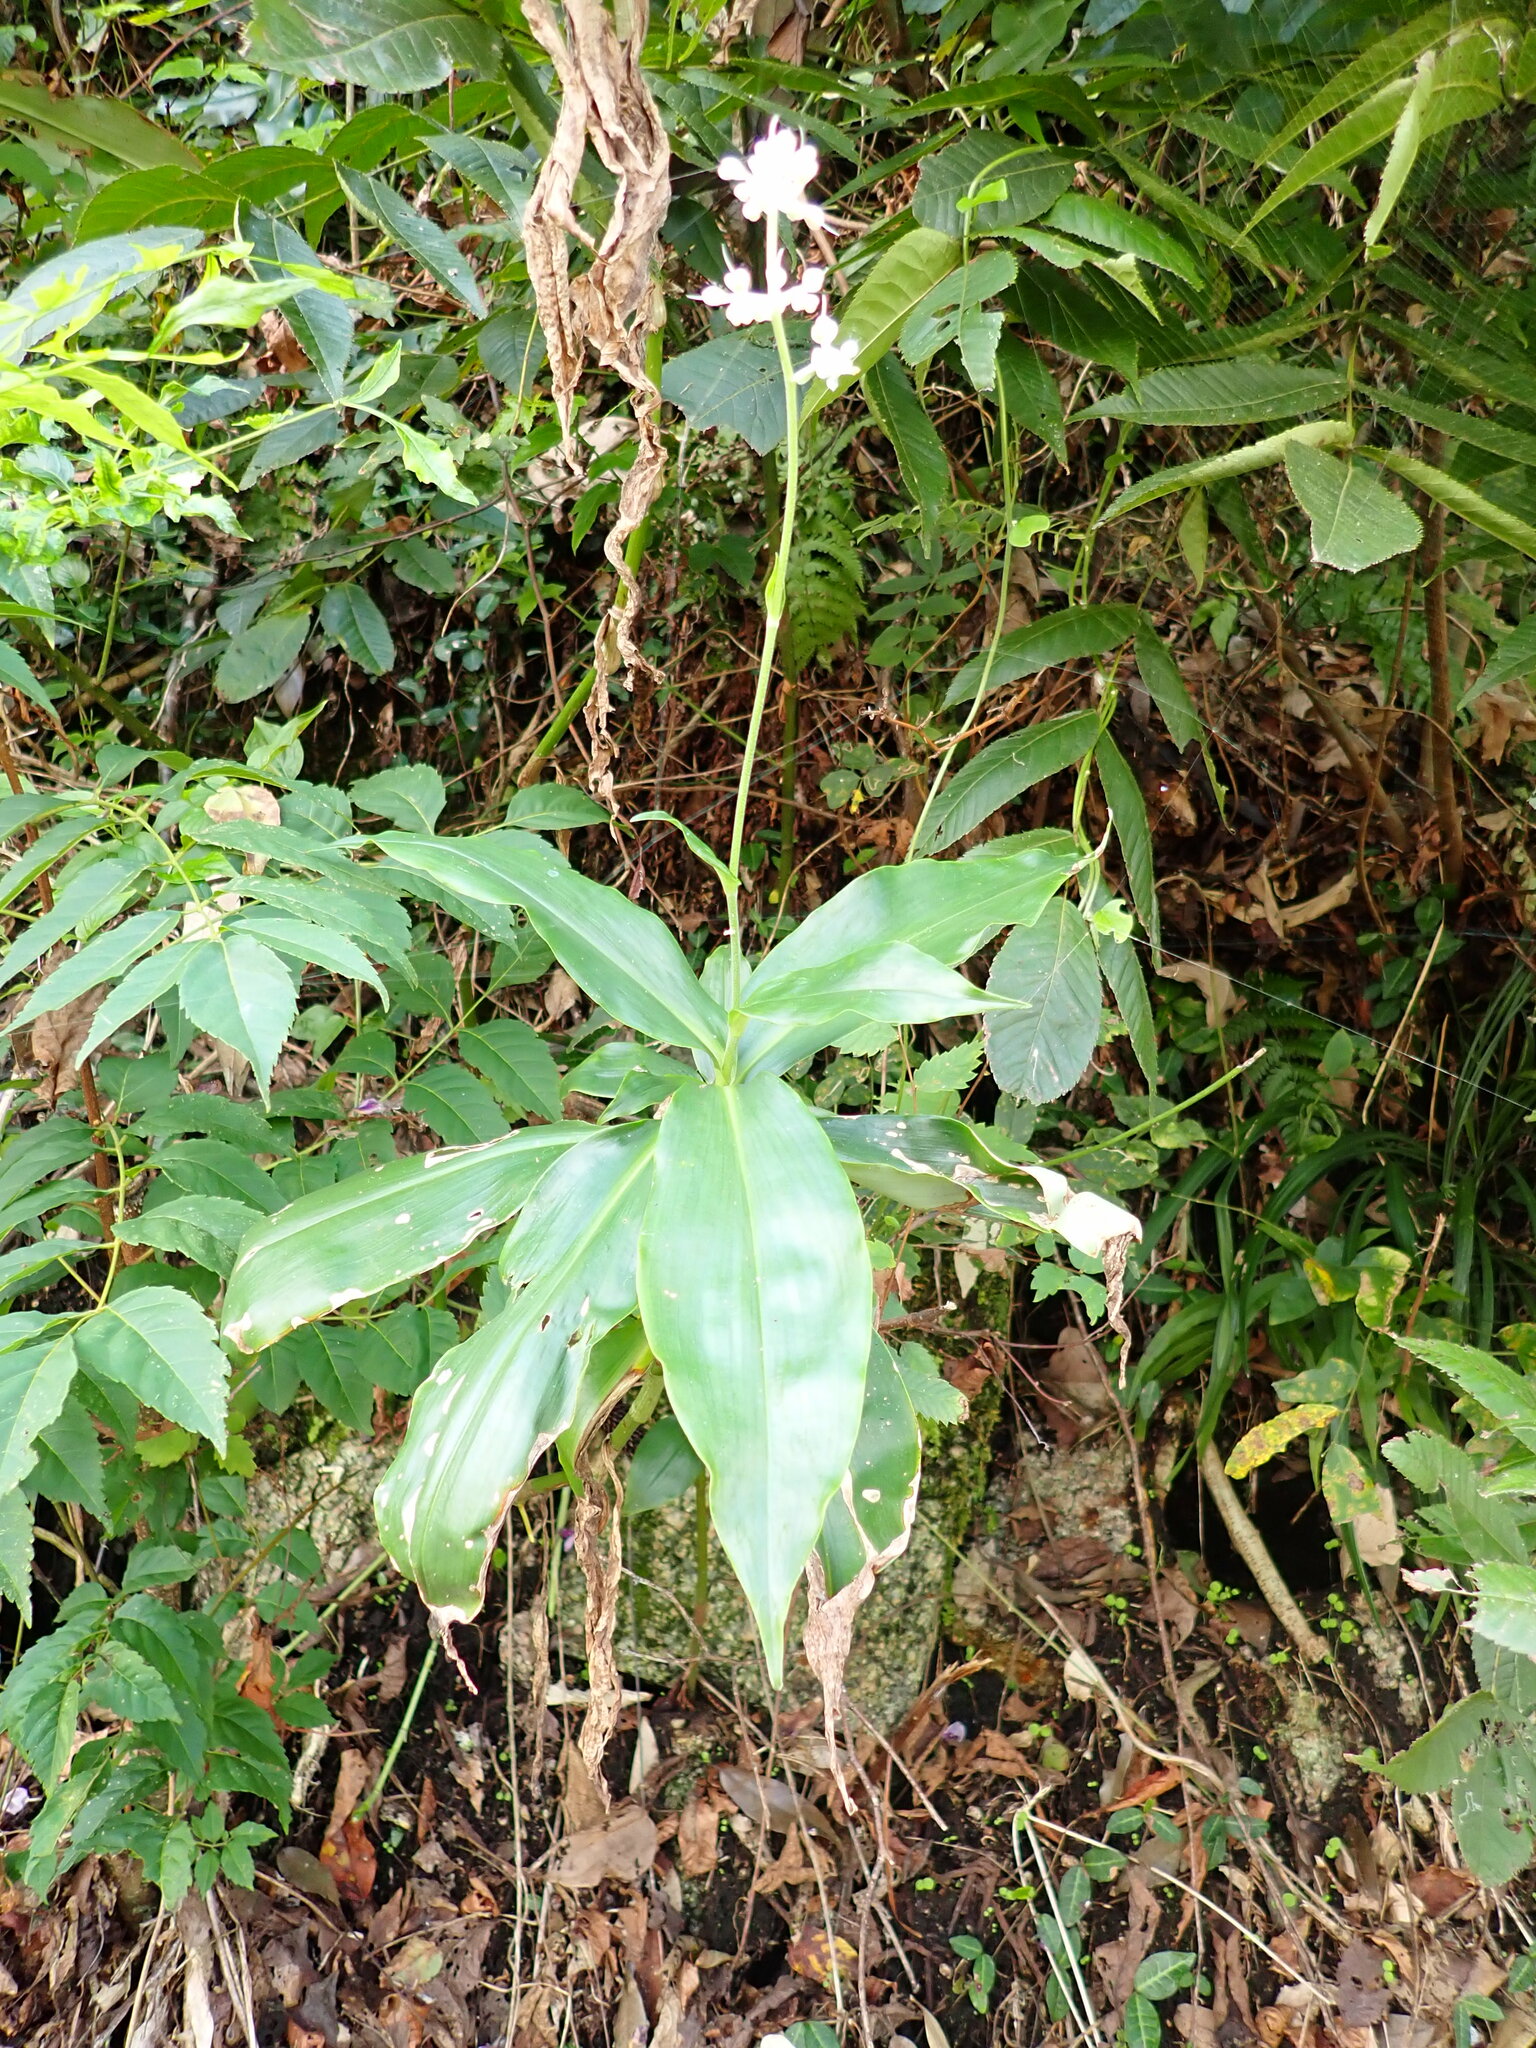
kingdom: Plantae
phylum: Tracheophyta
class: Liliopsida
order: Commelinales
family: Commelinaceae
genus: Pollia
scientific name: Pollia japonica
